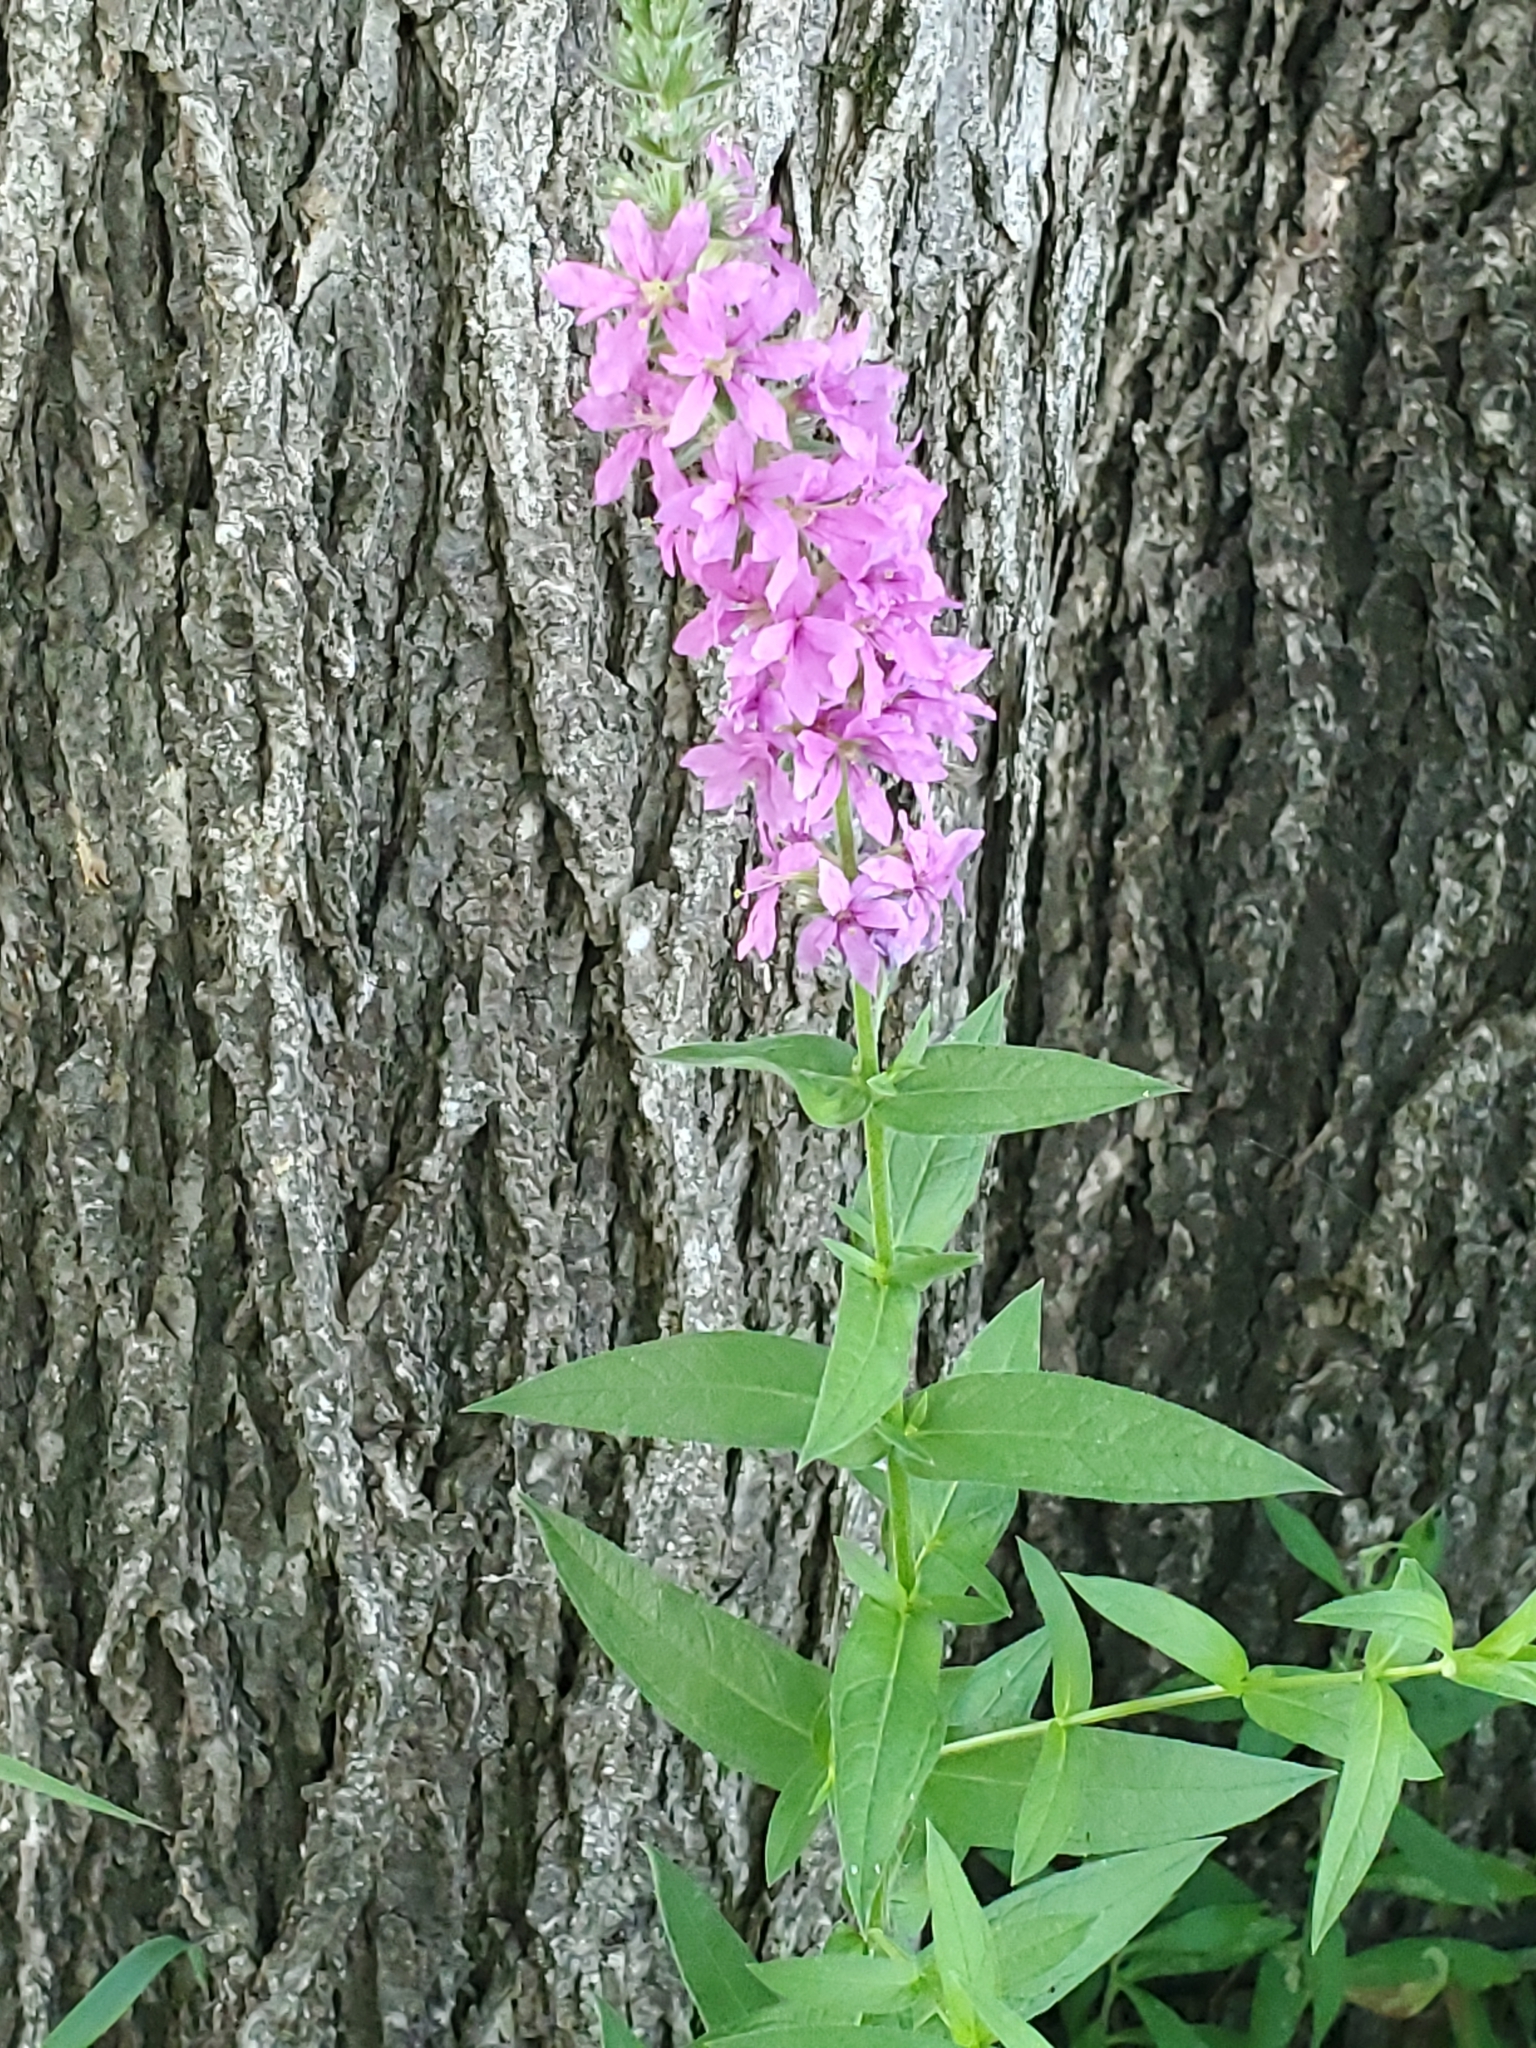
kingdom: Plantae
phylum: Tracheophyta
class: Magnoliopsida
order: Myrtales
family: Lythraceae
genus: Lythrum
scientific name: Lythrum salicaria
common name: Purple loosestrife
